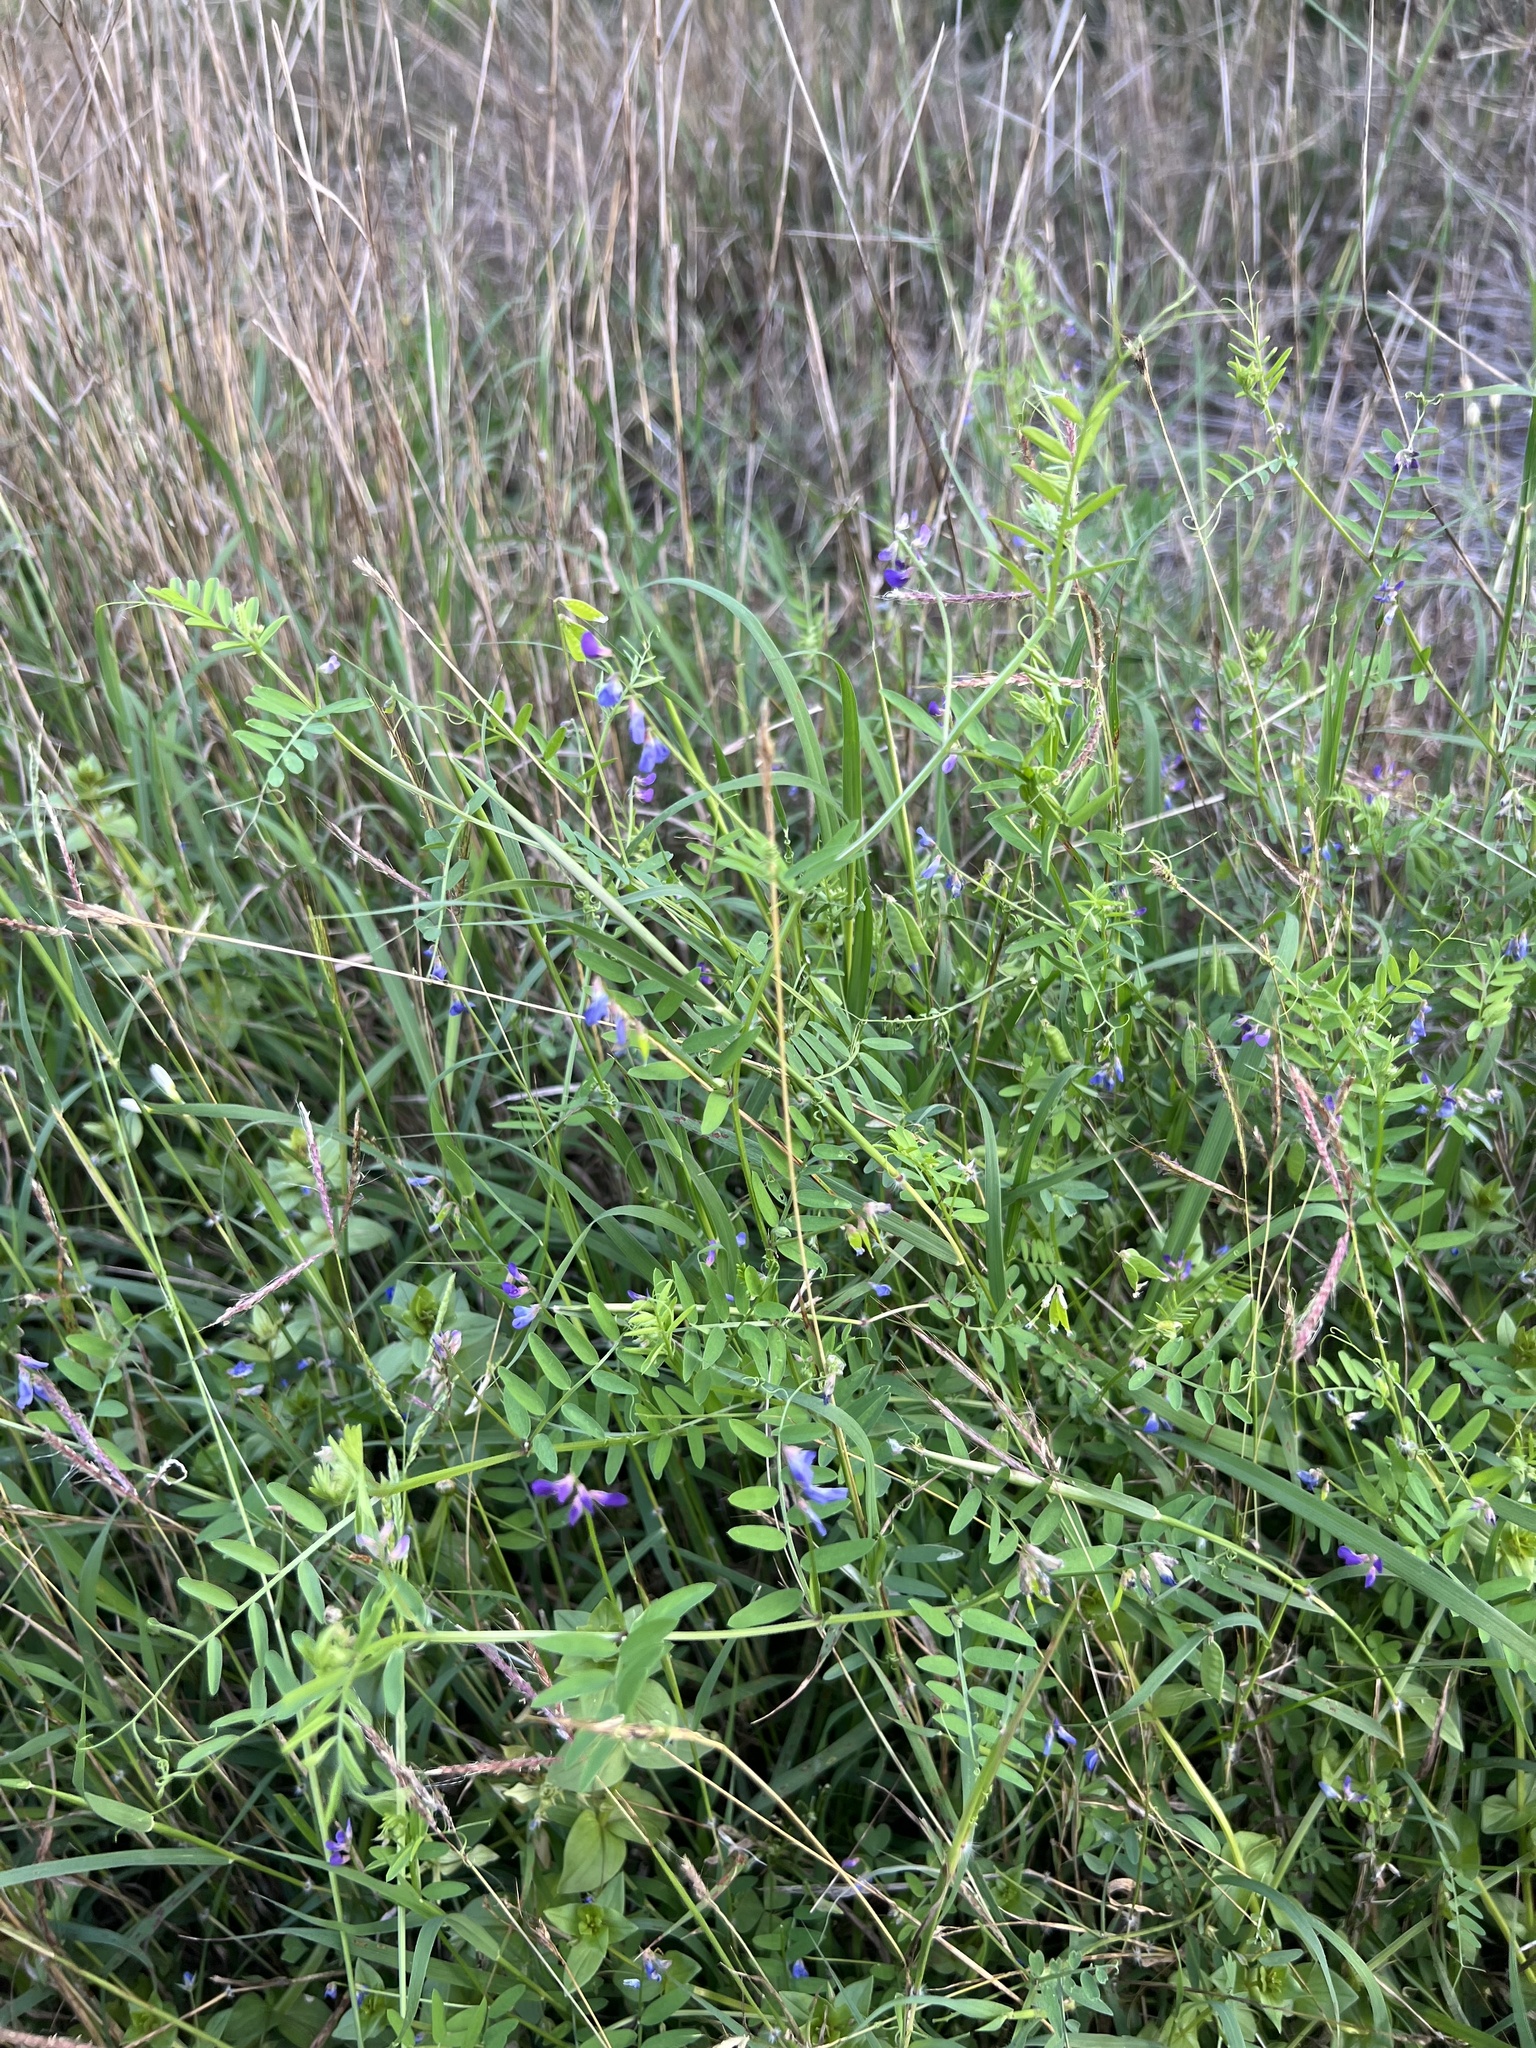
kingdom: Plantae
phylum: Tracheophyta
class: Magnoliopsida
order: Fabales
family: Fabaceae
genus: Vicia
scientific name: Vicia ludoviciana
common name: Louisiana vetch
